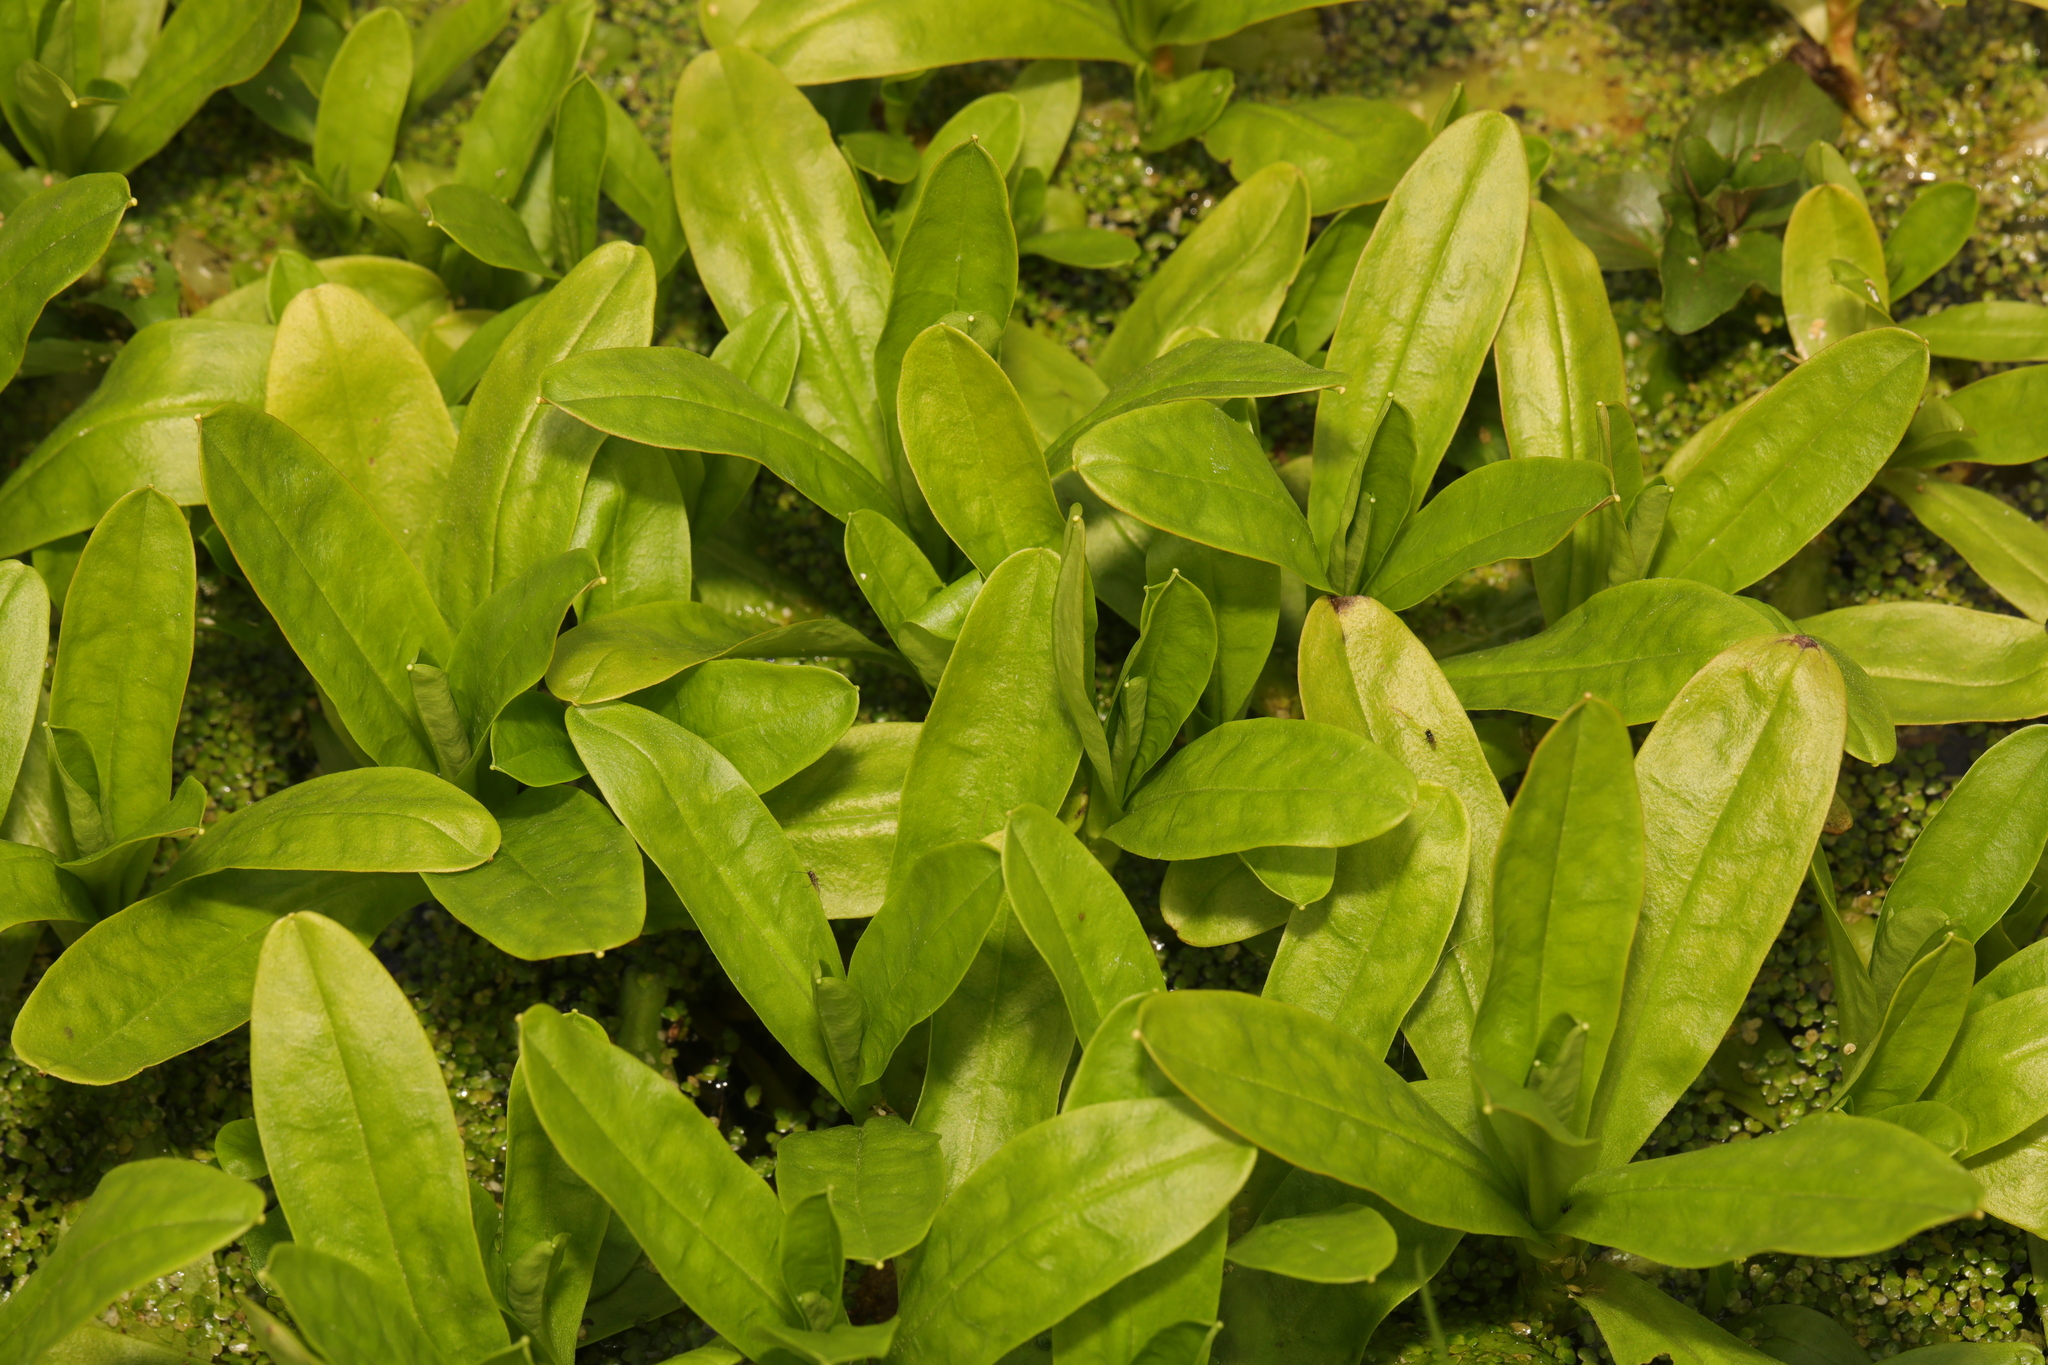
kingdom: Plantae
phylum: Tracheophyta
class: Magnoliopsida
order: Boraginales
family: Boraginaceae
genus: Myosotis
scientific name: Myosotis scorpioides
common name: Water forget-me-not
